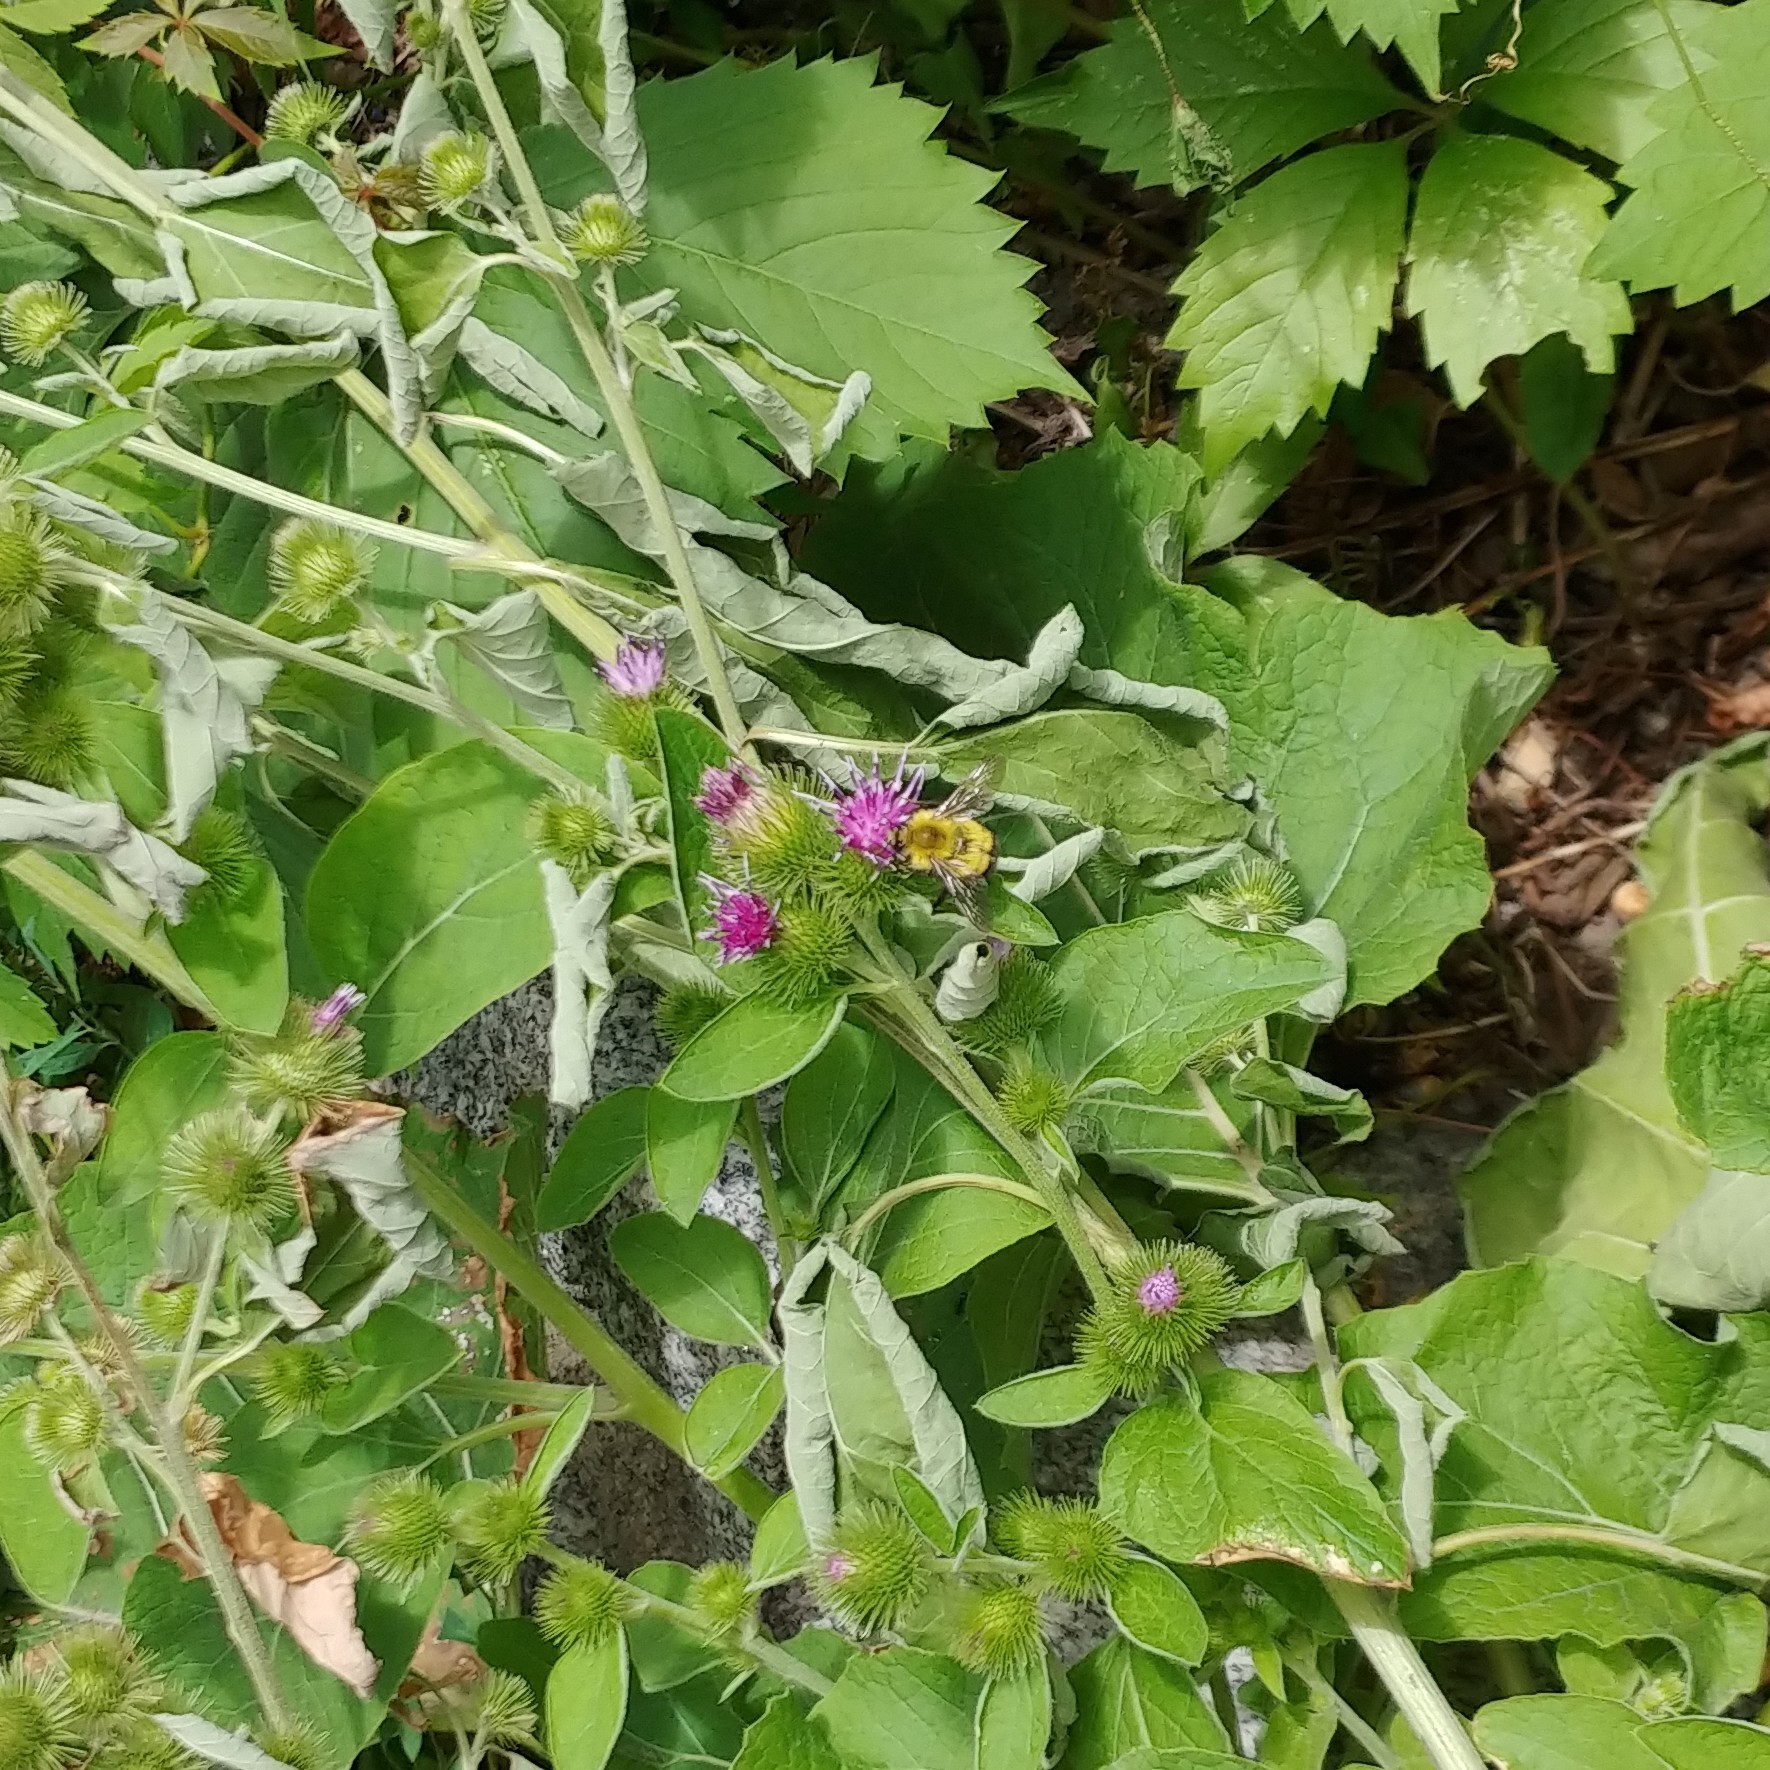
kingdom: Animalia
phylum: Arthropoda
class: Insecta
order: Hymenoptera
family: Apidae
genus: Bombus
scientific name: Bombus perplexus
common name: Confusing bumble bee
